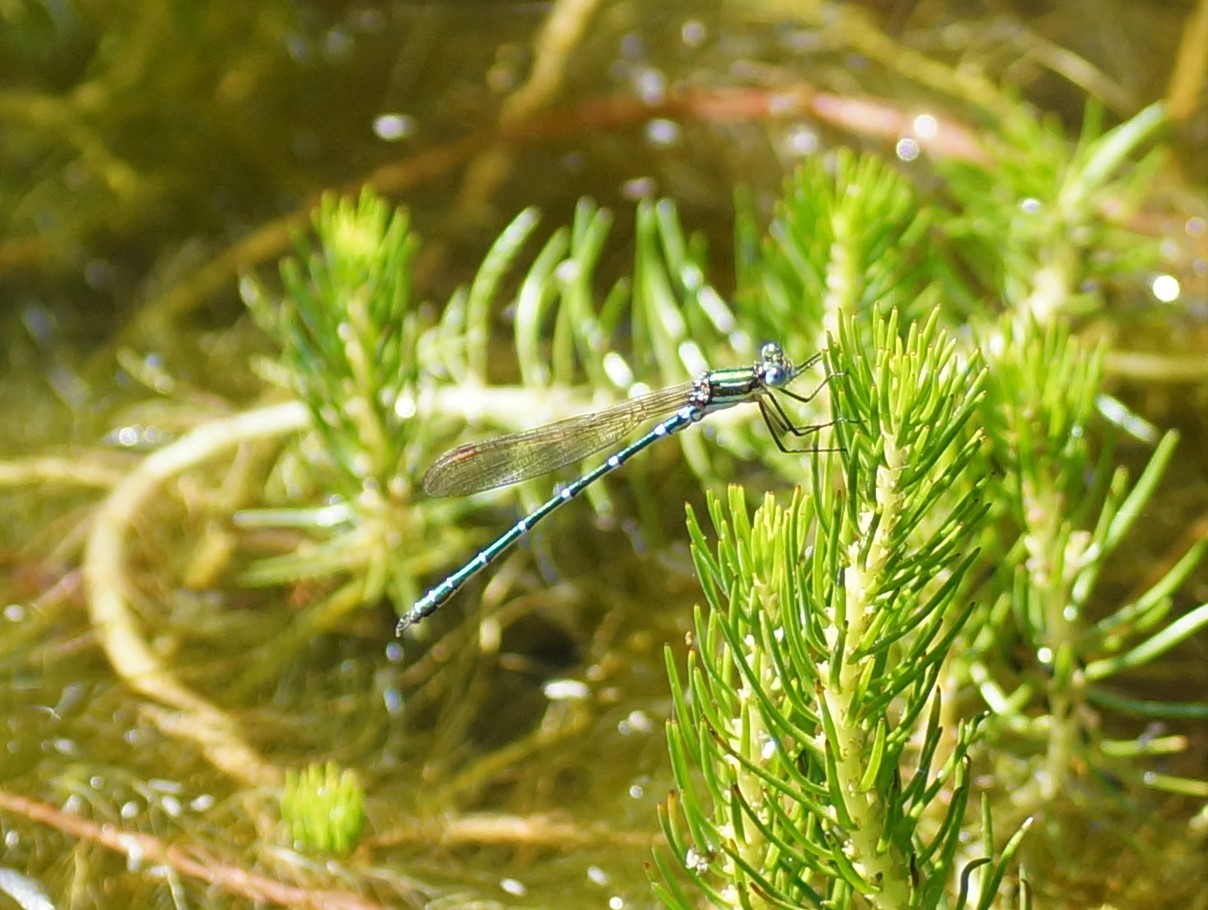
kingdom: Animalia
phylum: Arthropoda
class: Insecta
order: Odonata
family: Lestidae
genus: Austrolestes
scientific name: Austrolestes cingulatus
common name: Metallic ringtail
